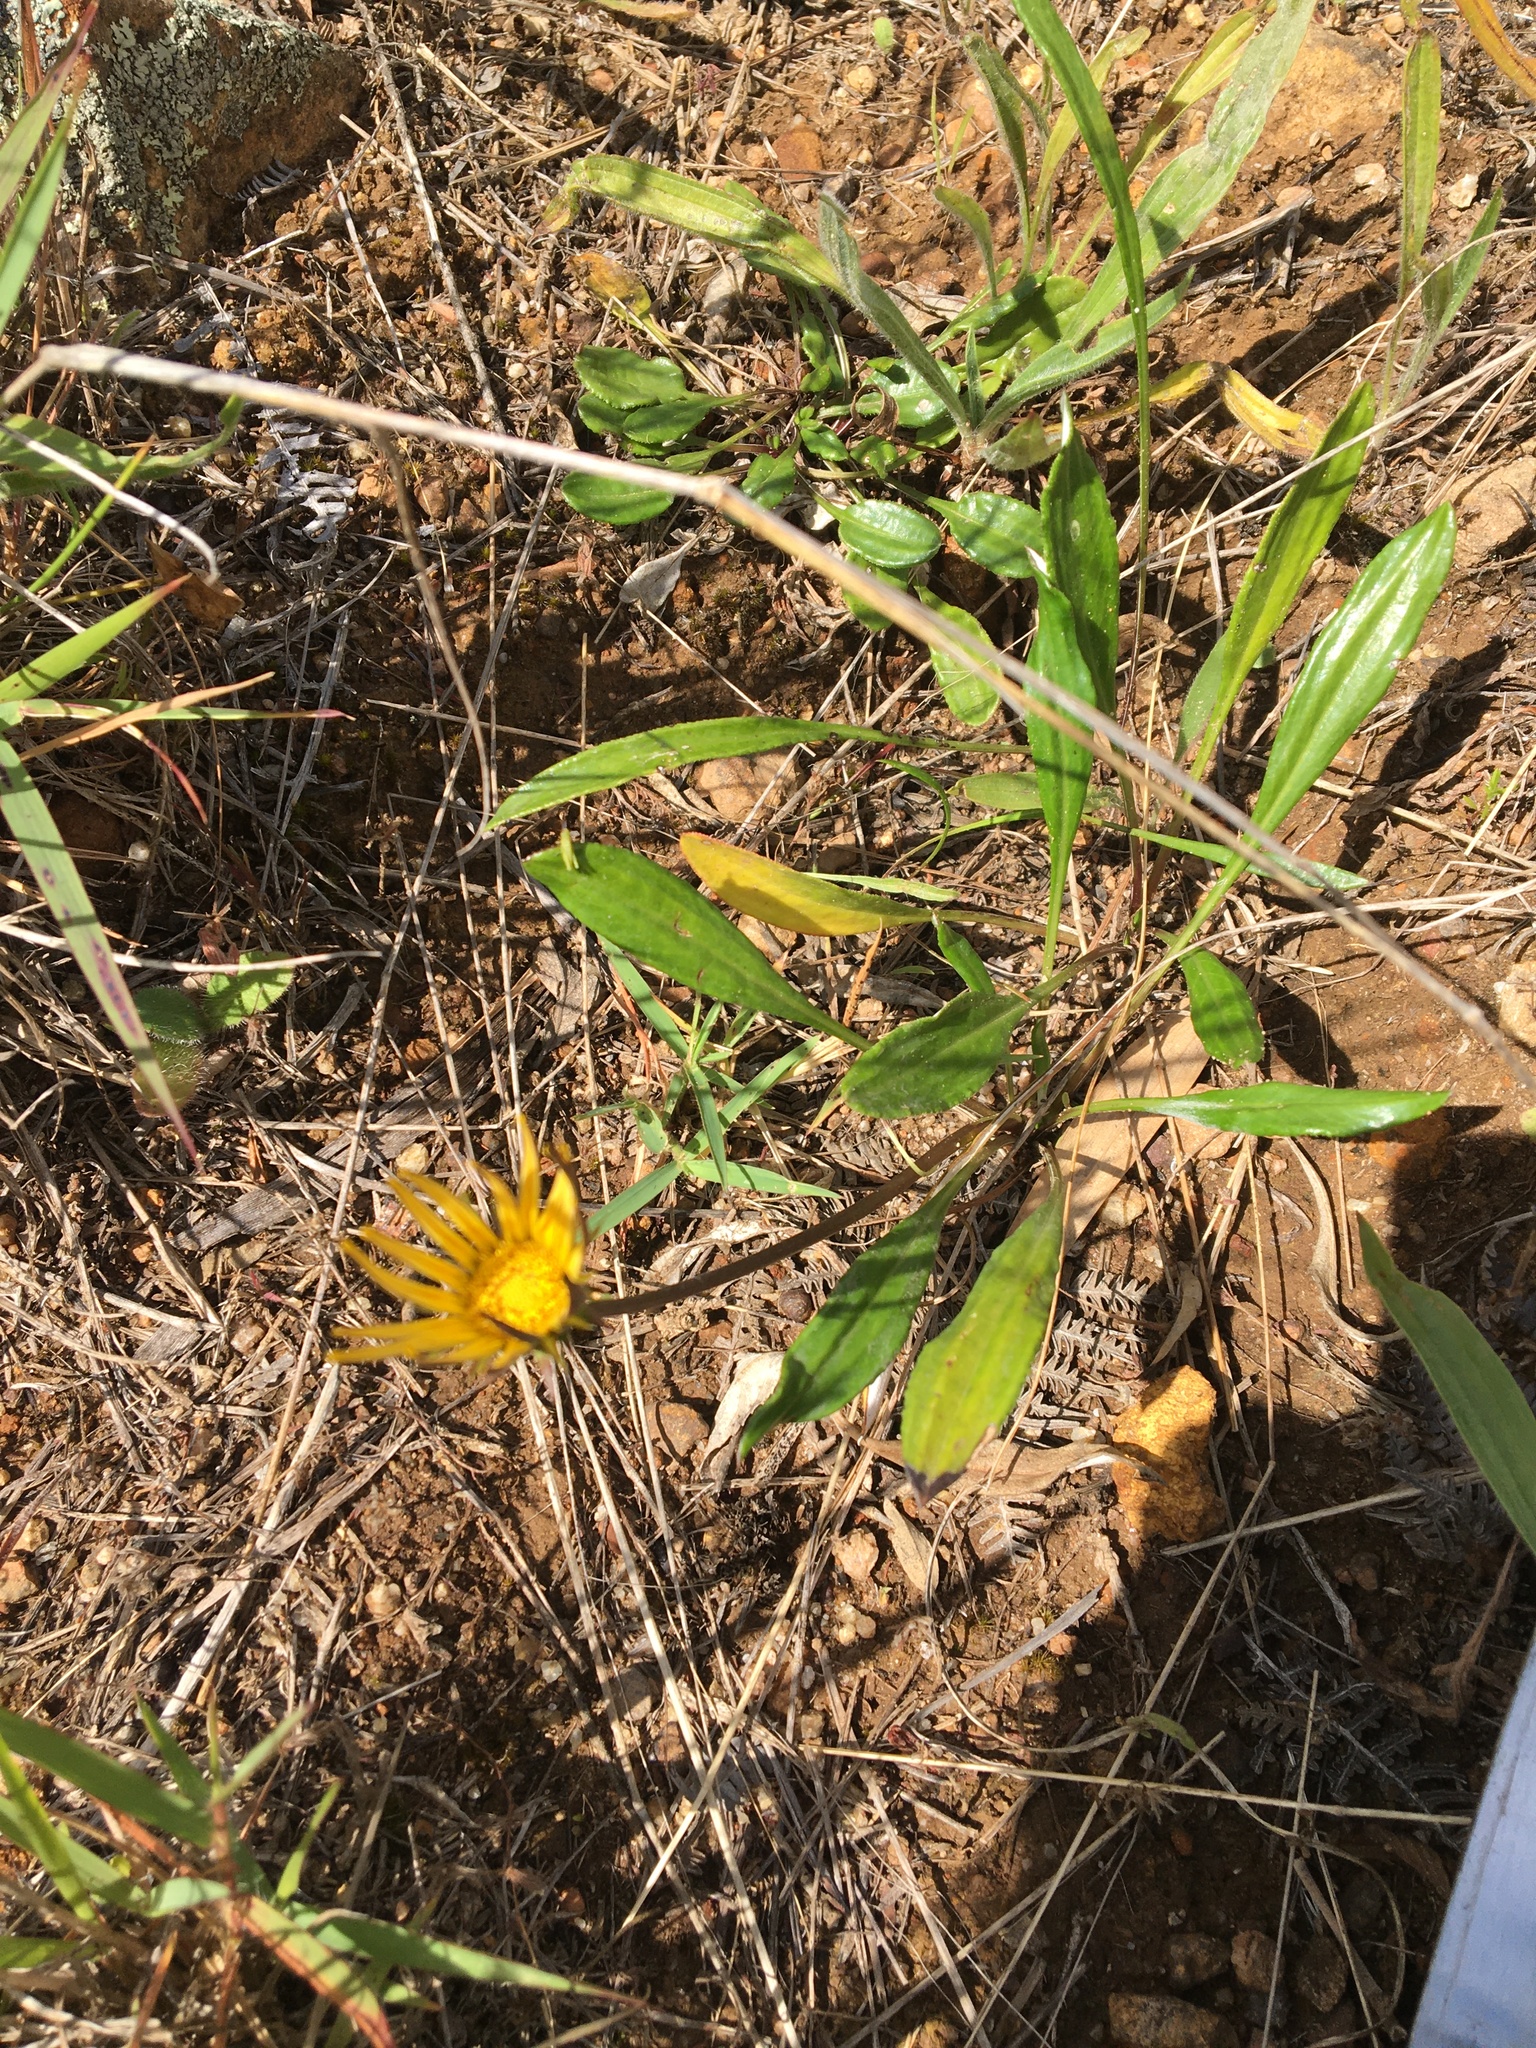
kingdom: Plantae
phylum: Tracheophyta
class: Magnoliopsida
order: Asterales
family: Asteraceae
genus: Gazania
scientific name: Gazania rigens
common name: Treasureflower
